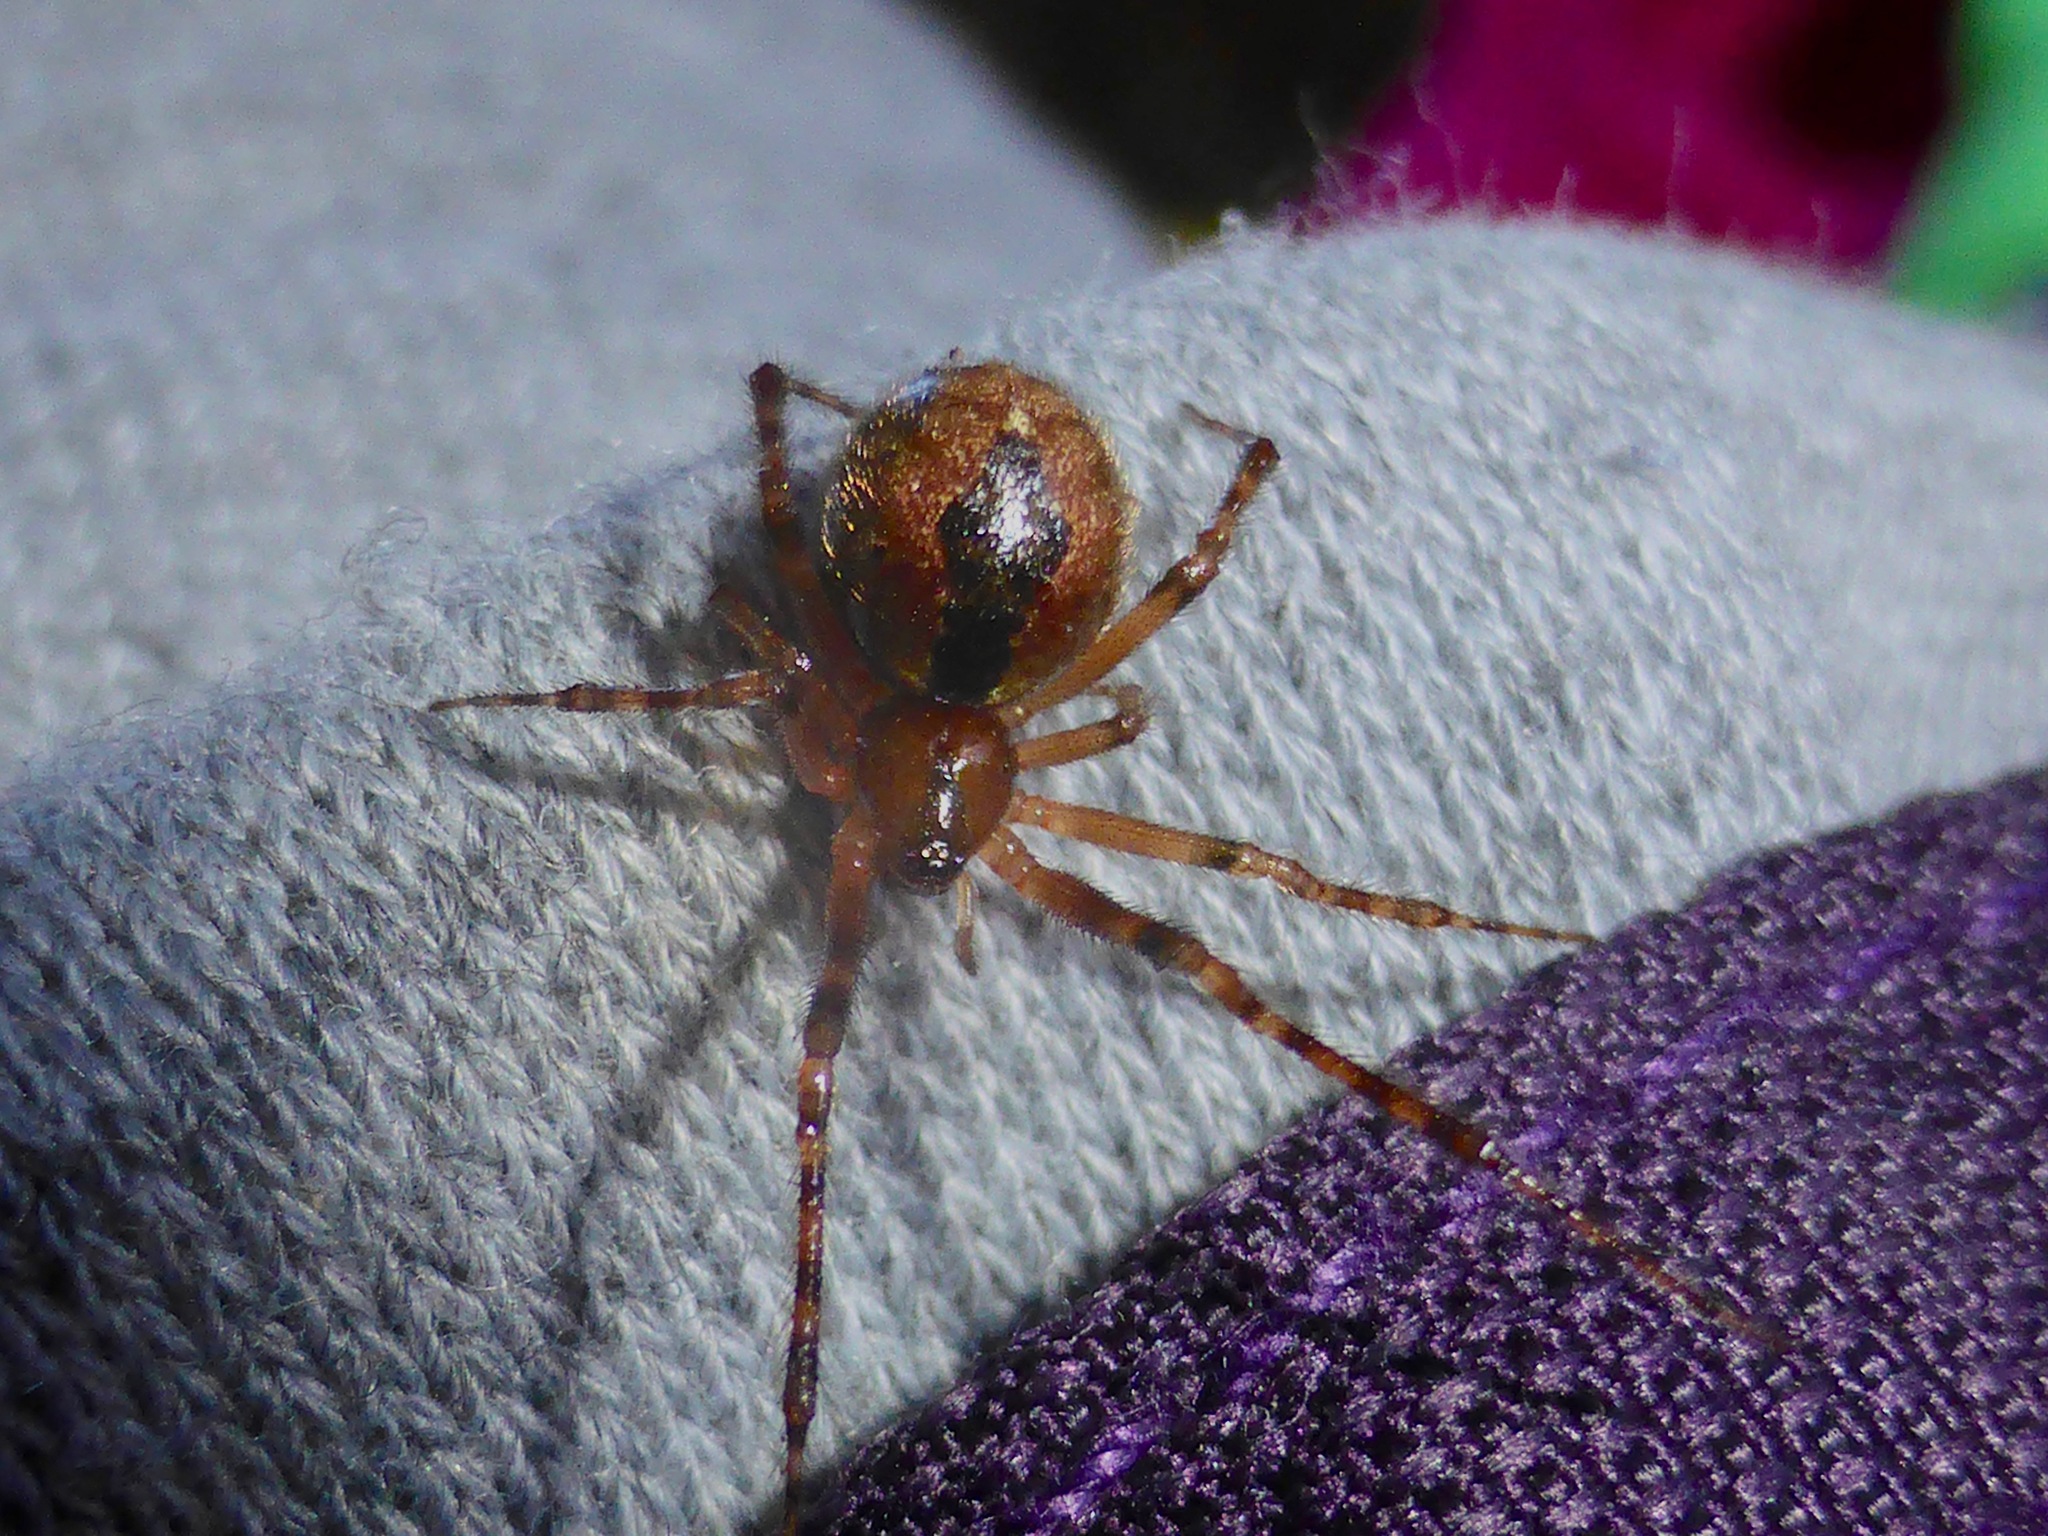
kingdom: Animalia
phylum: Arthropoda
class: Arachnida
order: Araneae
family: Theridiidae
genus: Cryptachaea
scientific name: Cryptachaea veruculata
